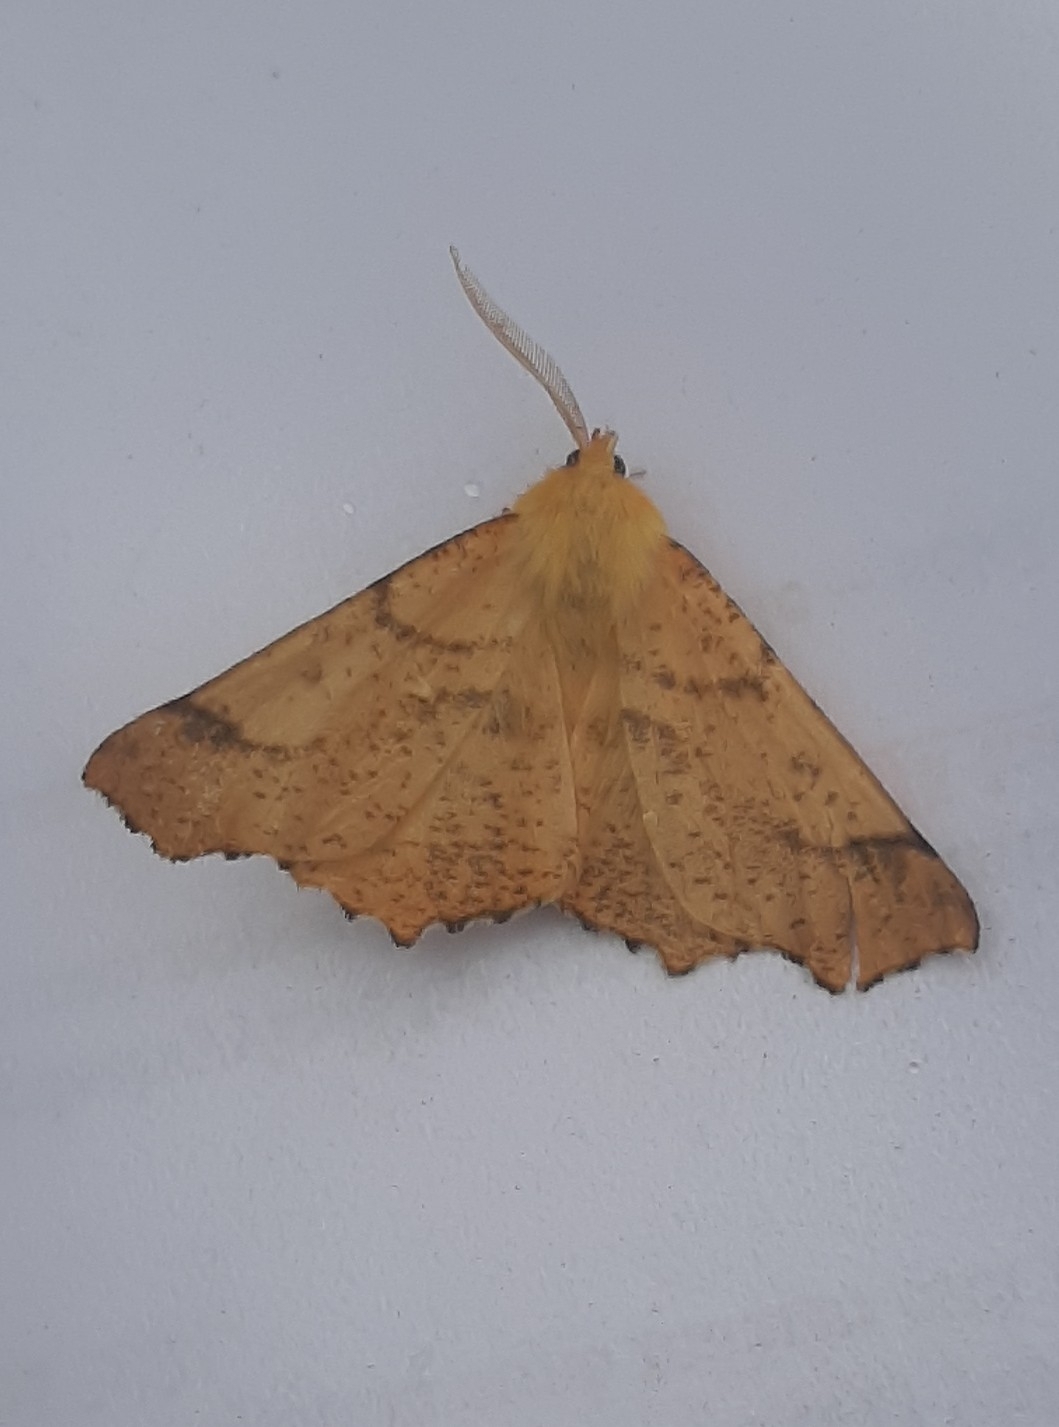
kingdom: Animalia
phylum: Arthropoda
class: Insecta
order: Lepidoptera
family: Geometridae
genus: Ennomos
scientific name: Ennomos autumnaria
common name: Large thorn
